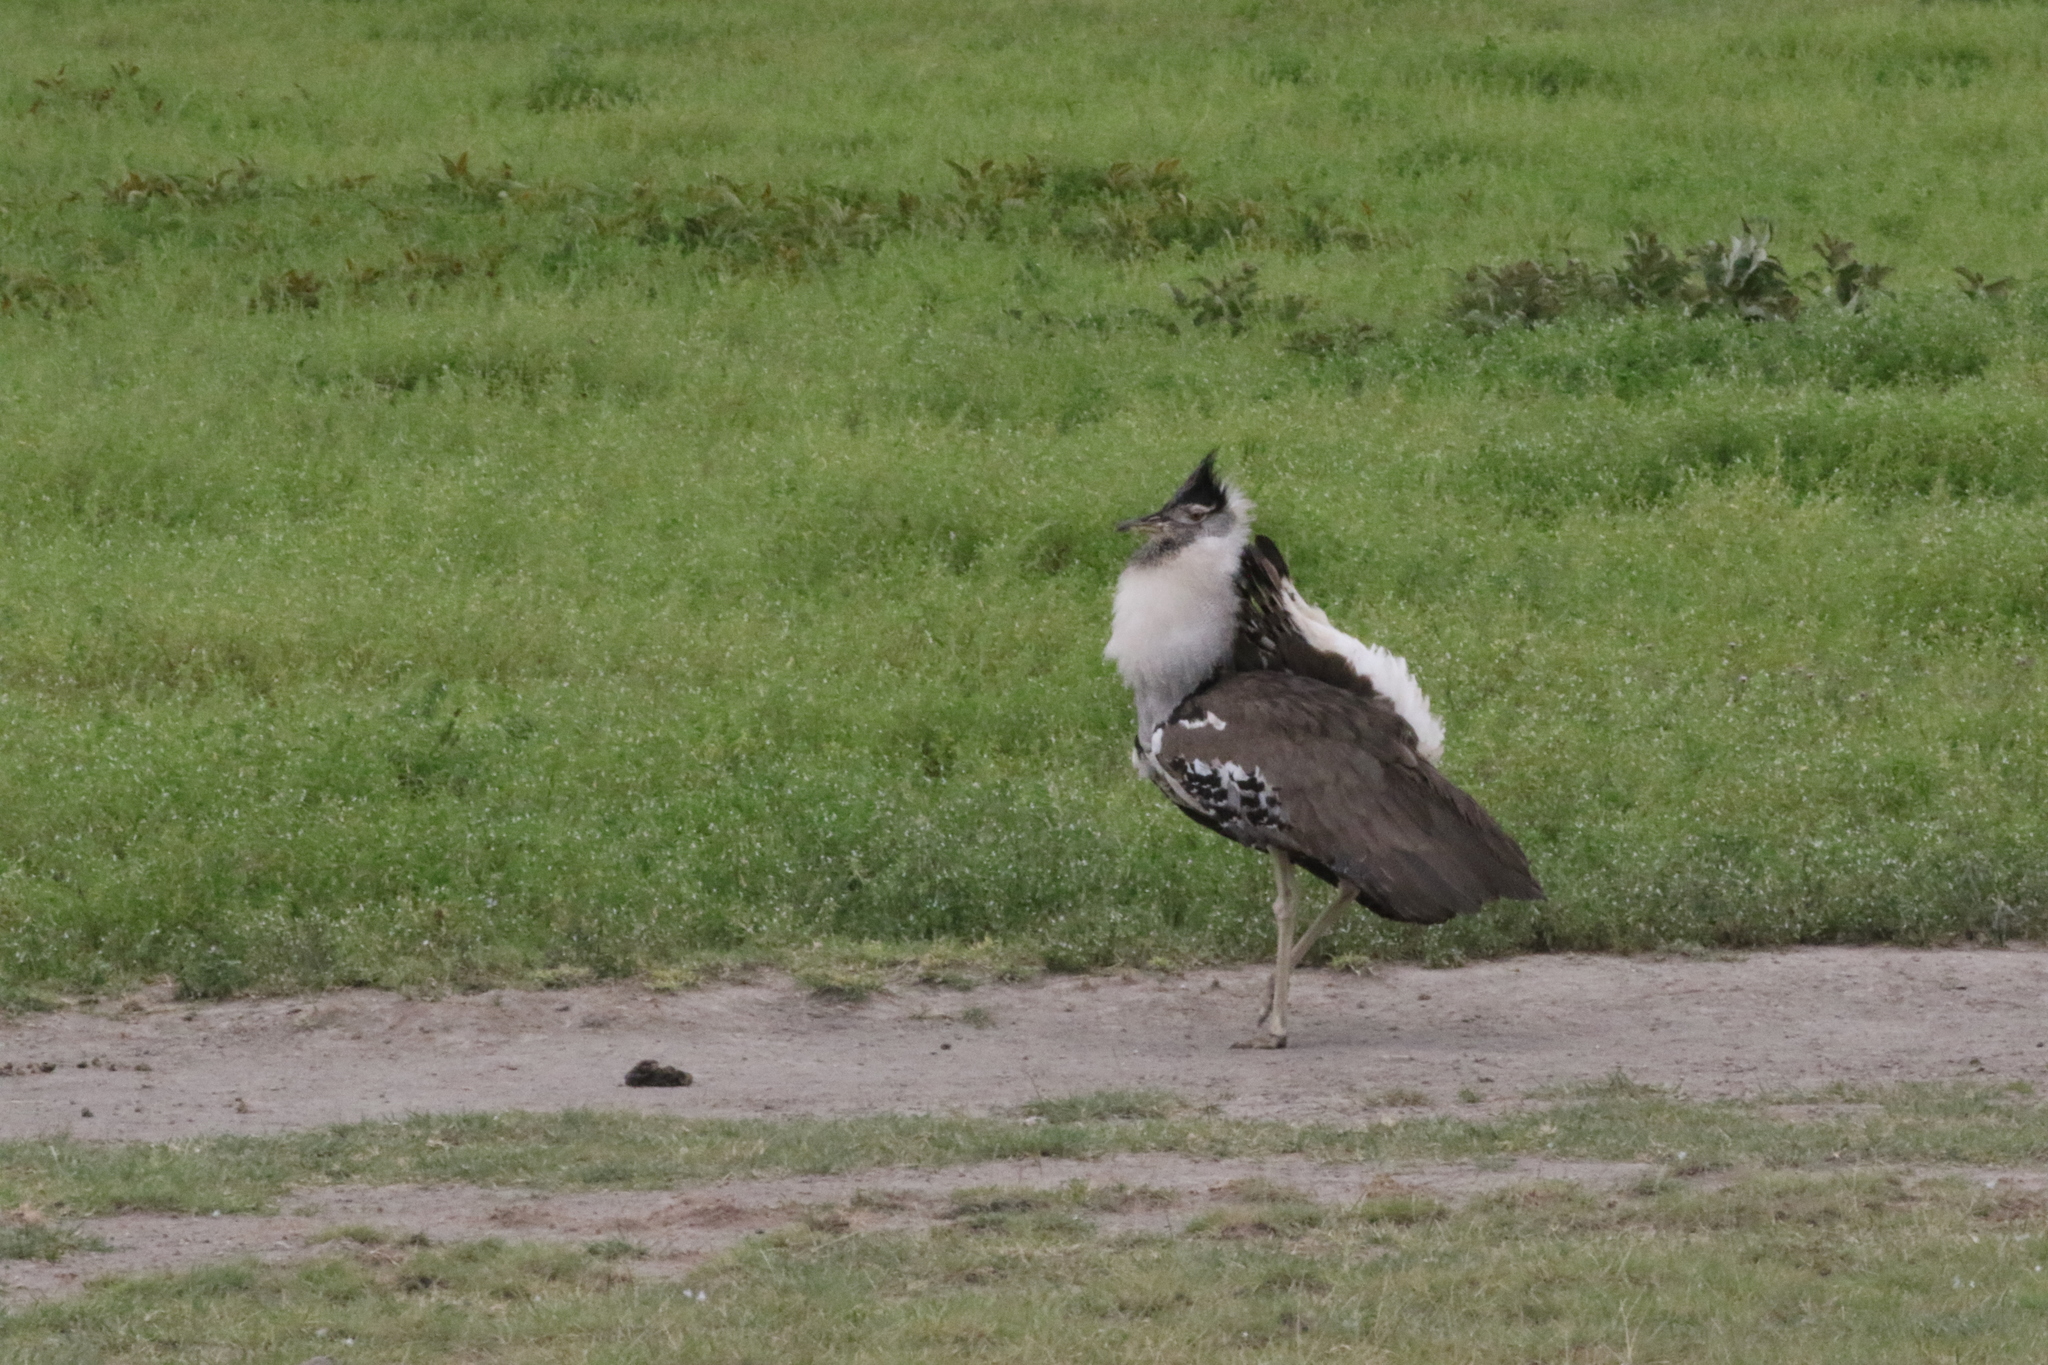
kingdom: Animalia
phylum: Chordata
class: Aves
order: Otidiformes
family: Otididae
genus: Ardeotis
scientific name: Ardeotis kori
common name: Kori bustard
